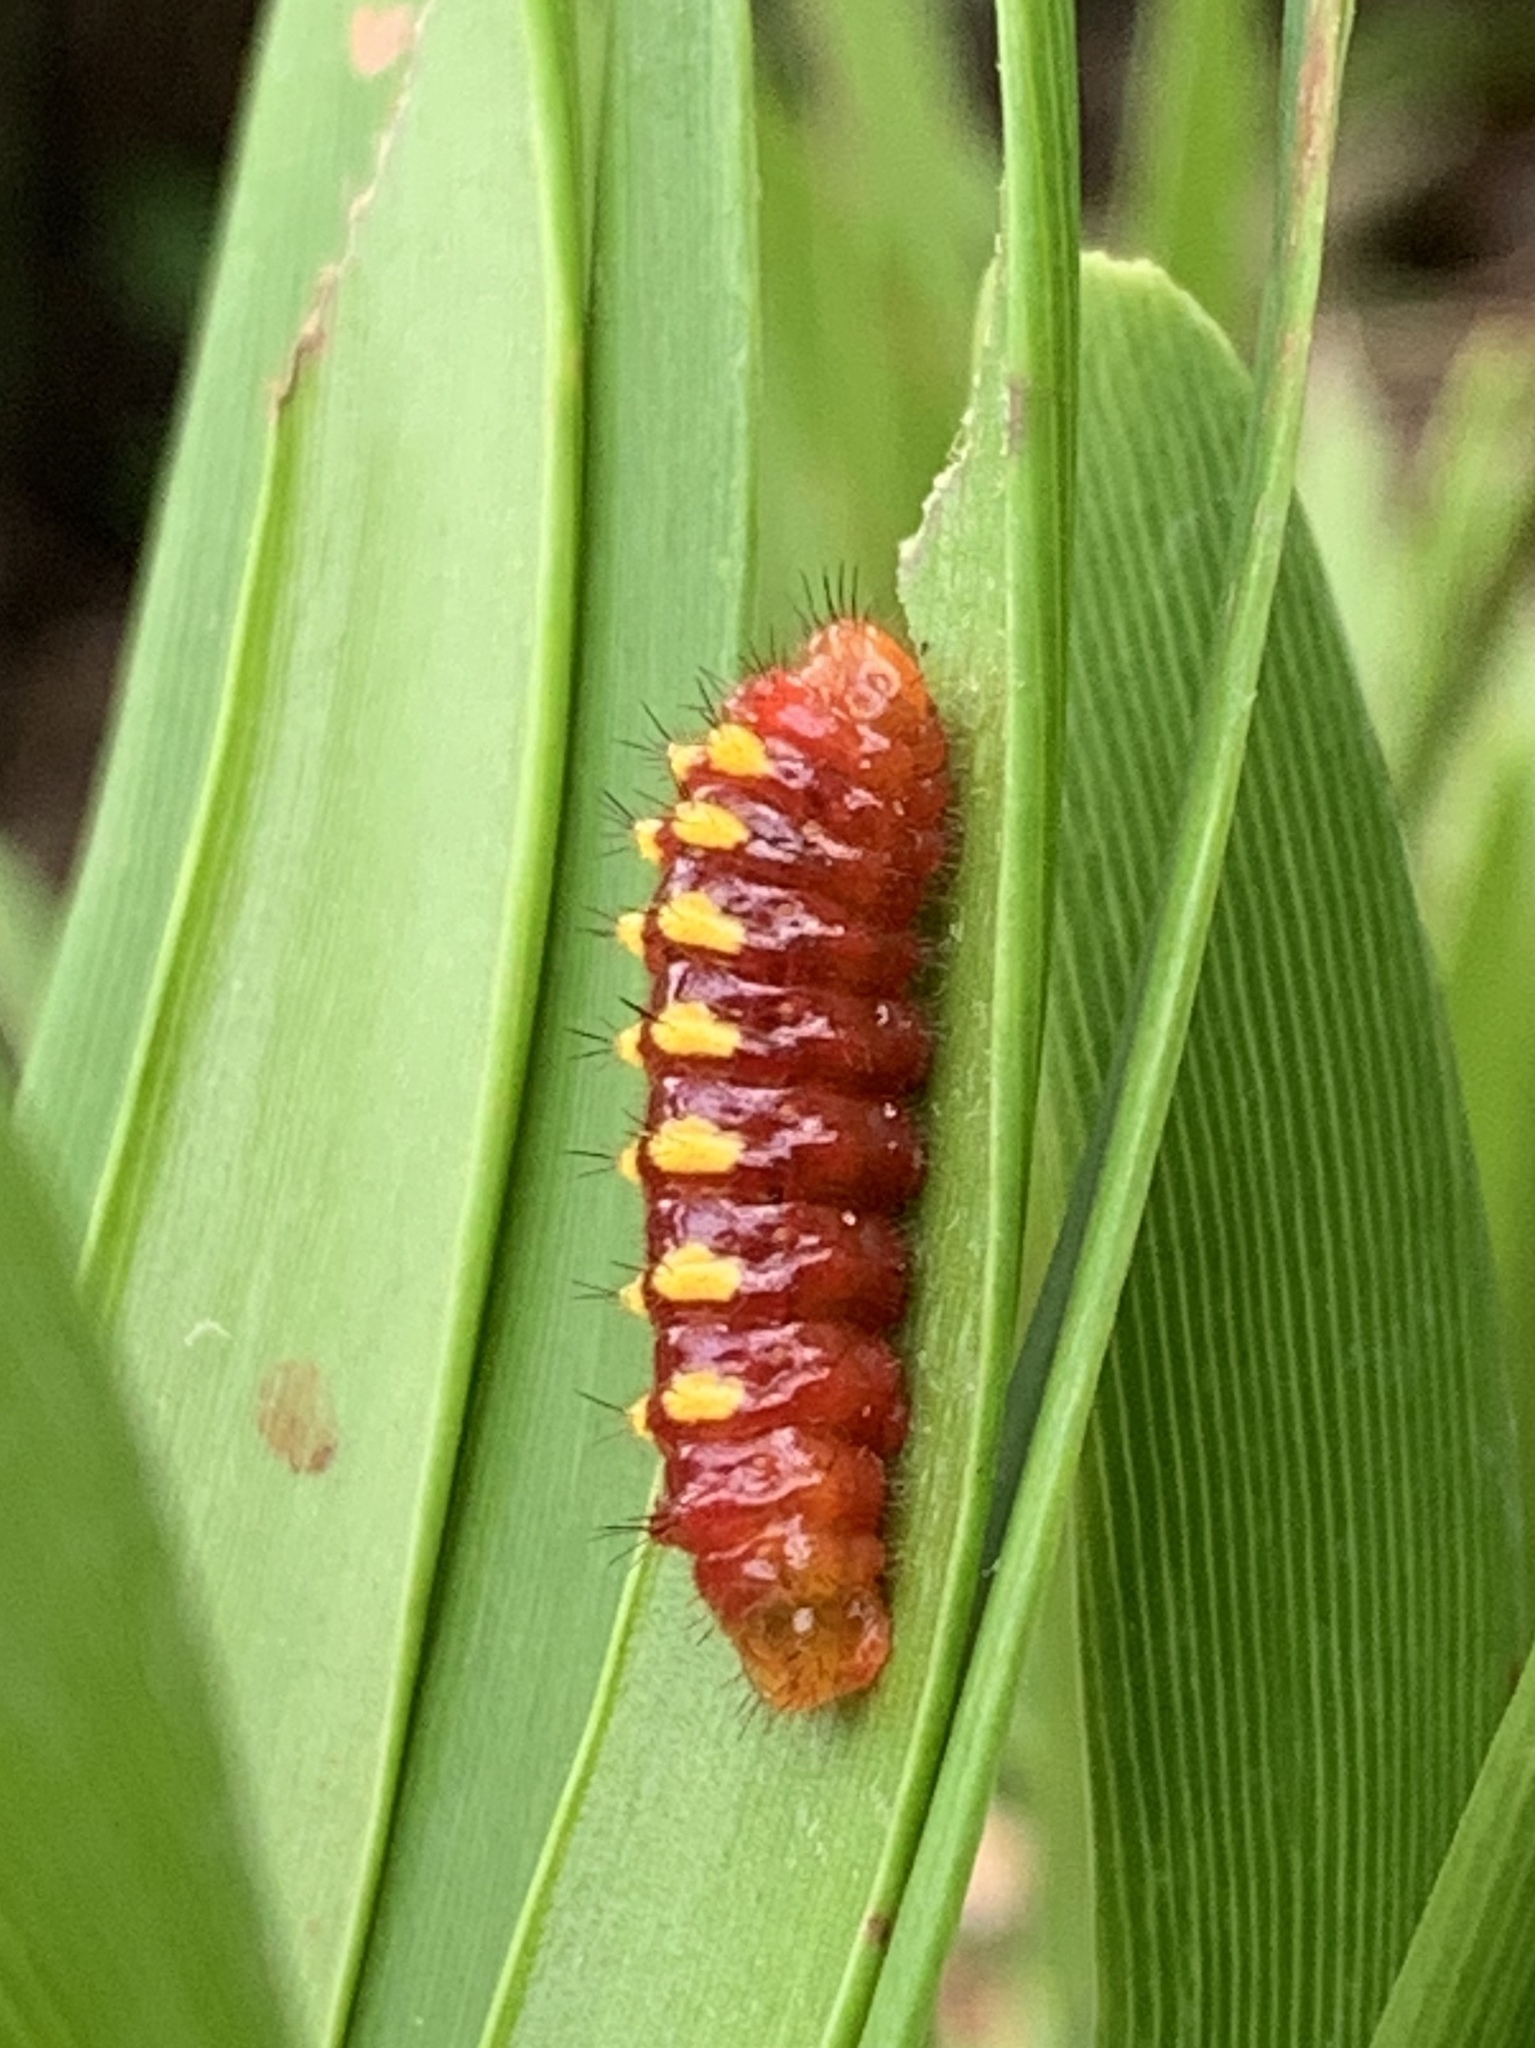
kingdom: Animalia
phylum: Arthropoda
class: Insecta
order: Lepidoptera
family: Lycaenidae
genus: Eumaeus
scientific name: Eumaeus atala
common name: Atala
